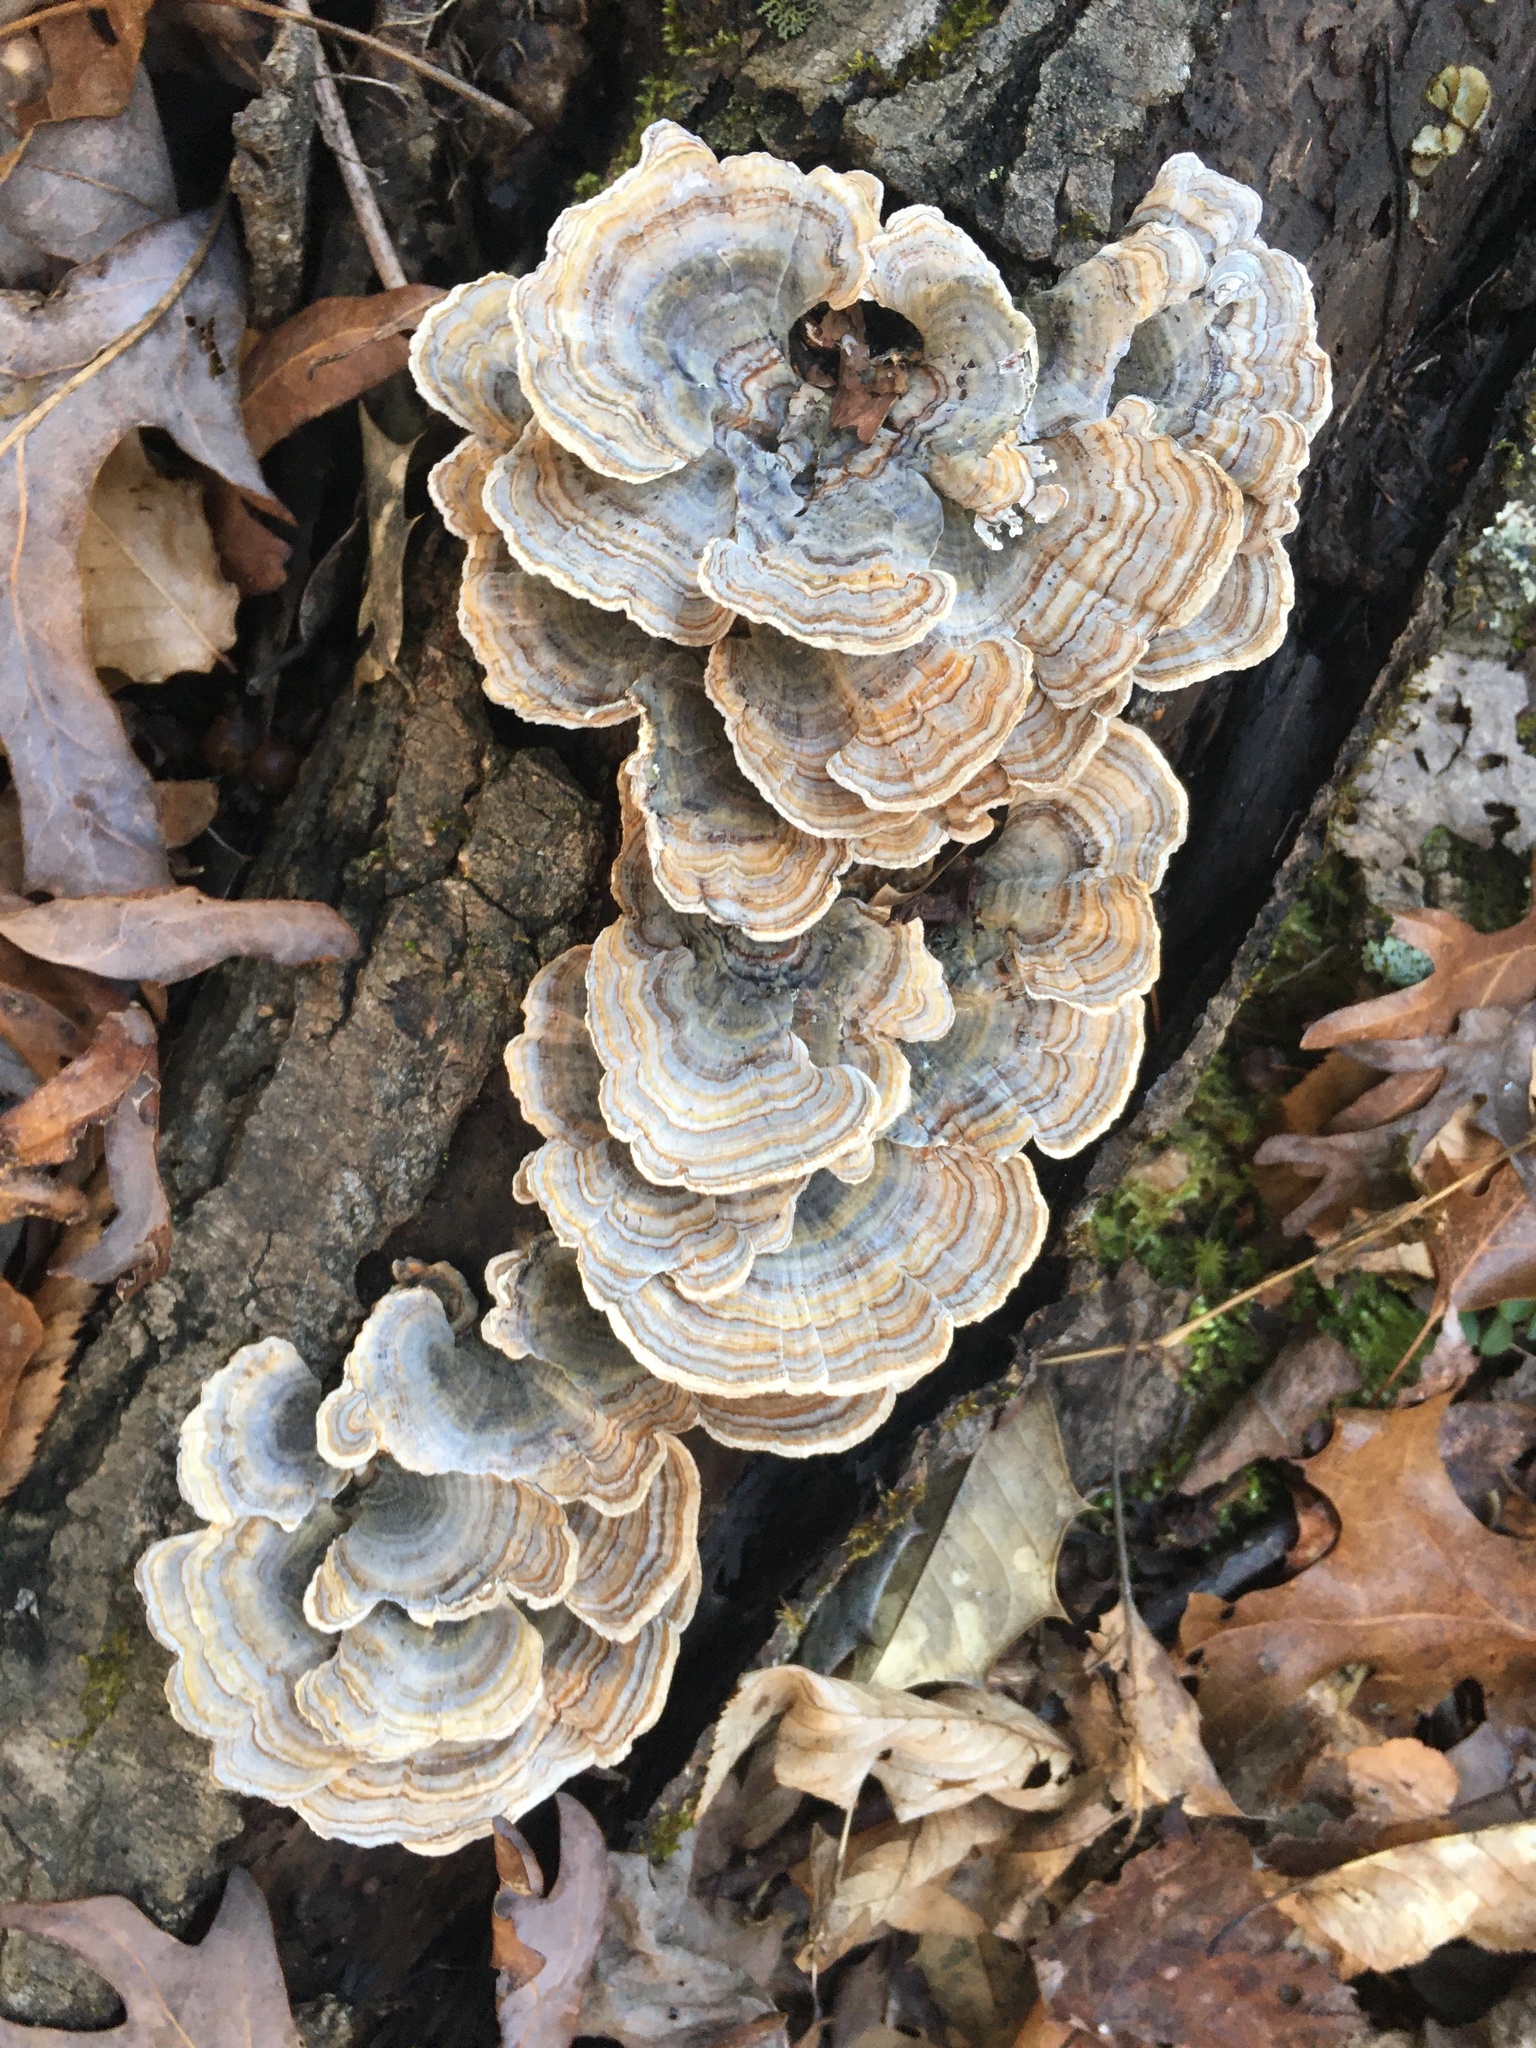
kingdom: Fungi
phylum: Basidiomycota
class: Agaricomycetes
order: Polyporales
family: Polyporaceae
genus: Trametes
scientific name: Trametes versicolor
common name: Turkeytail
